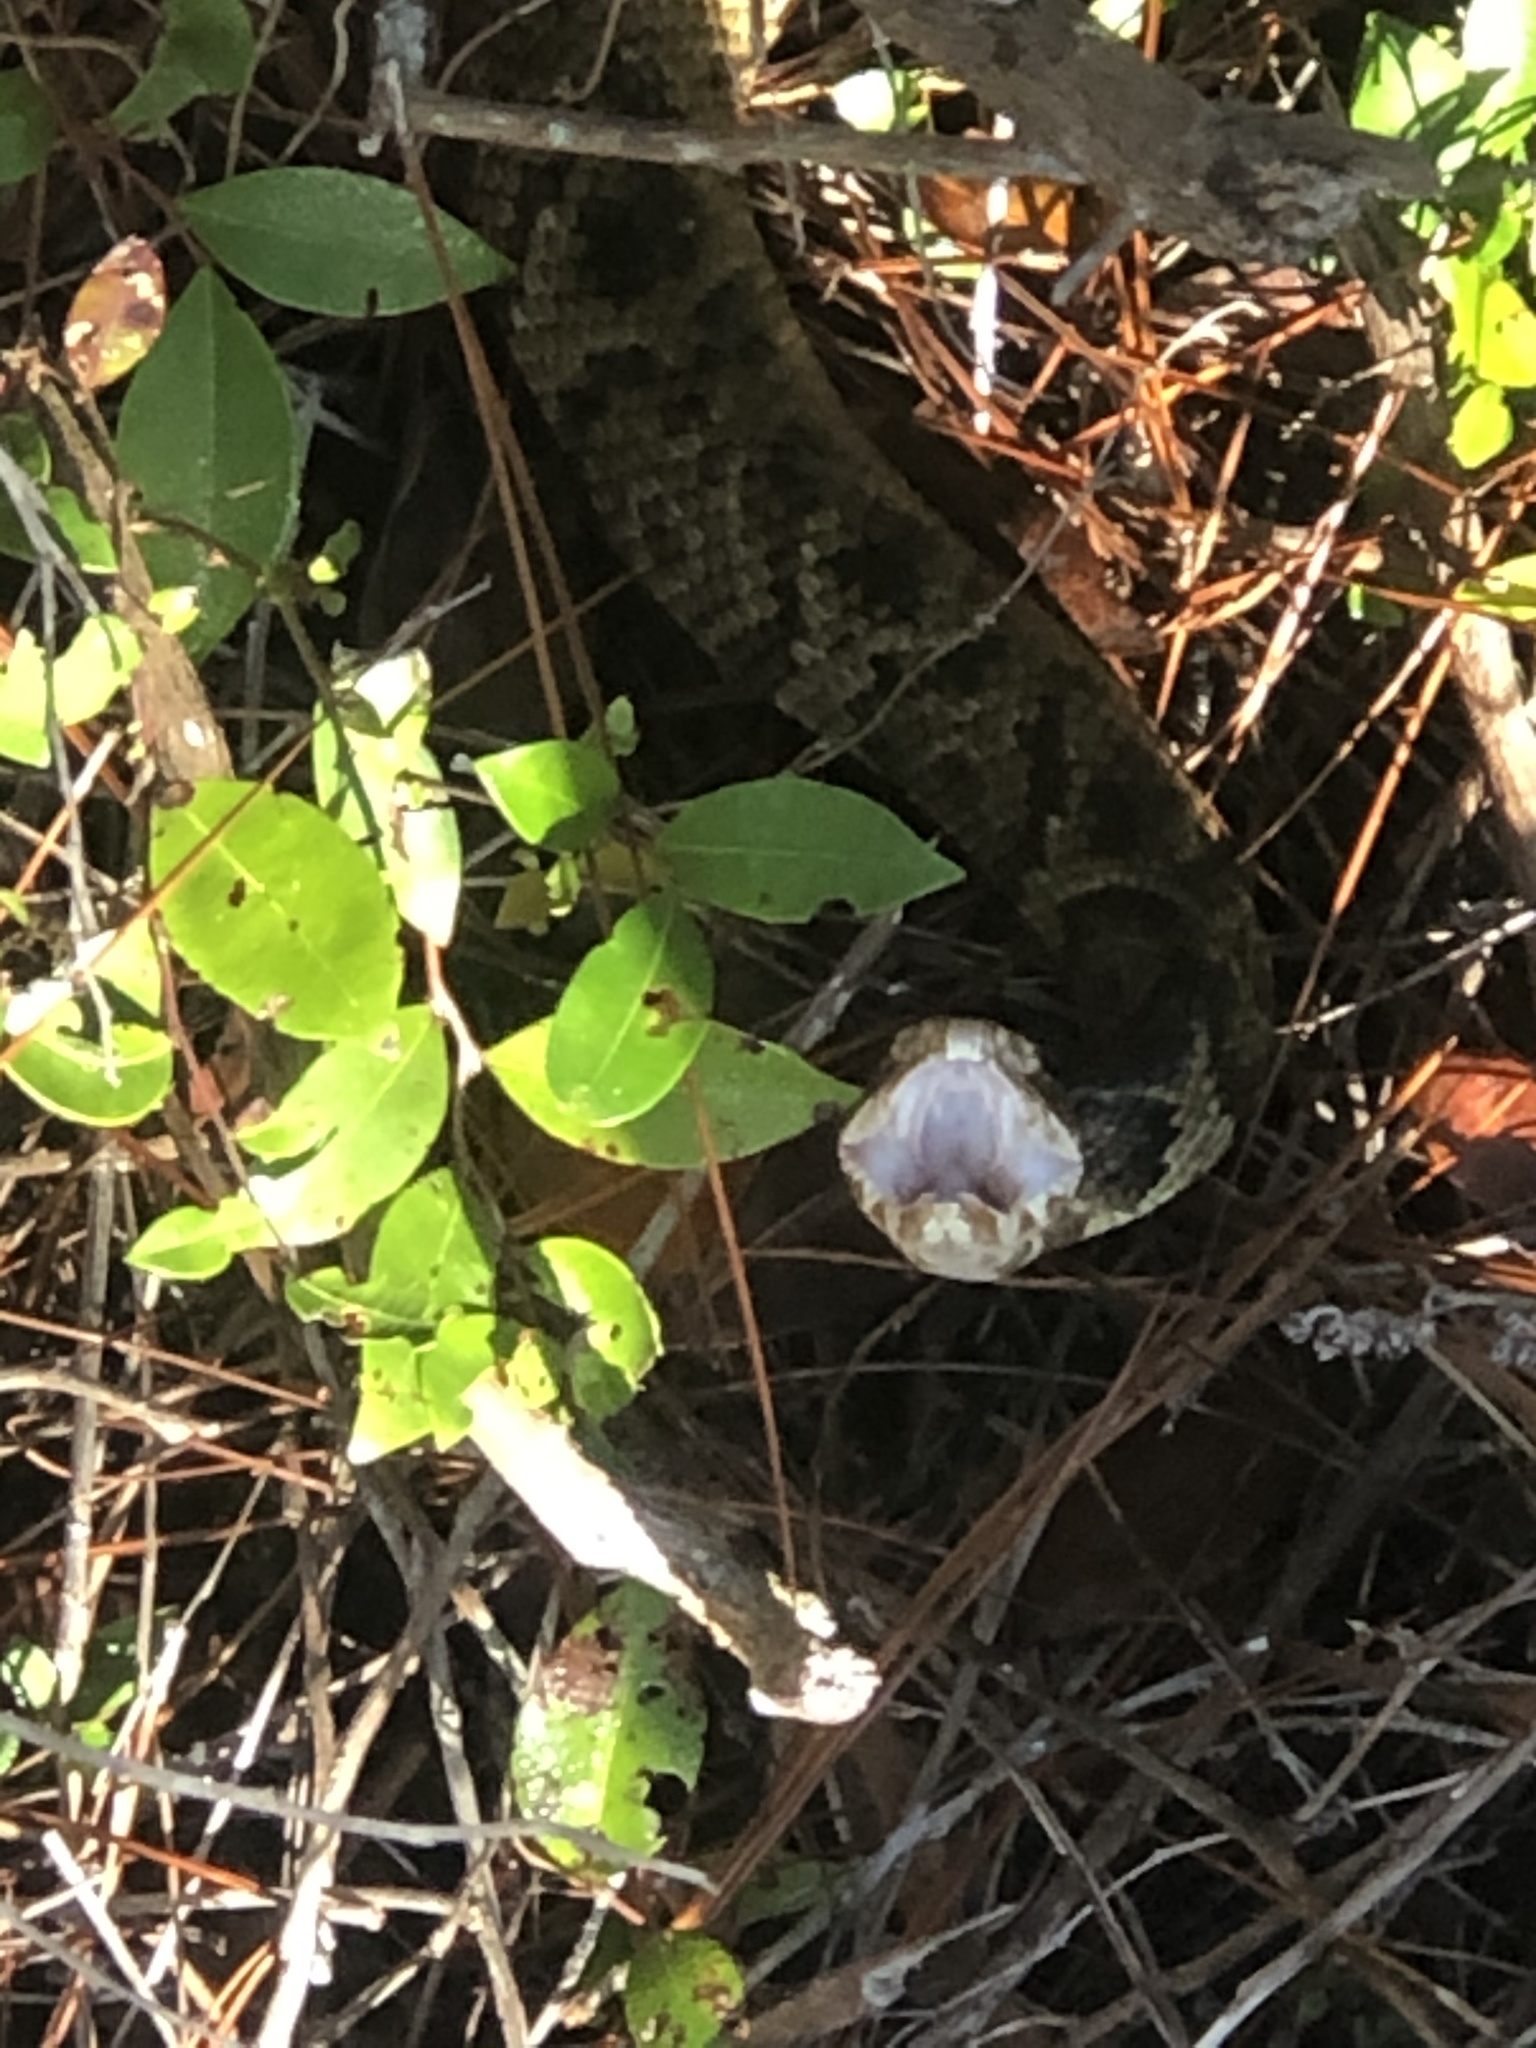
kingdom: Animalia
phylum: Chordata
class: Squamata
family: Viperidae
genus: Agkistrodon
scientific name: Agkistrodon conanti
